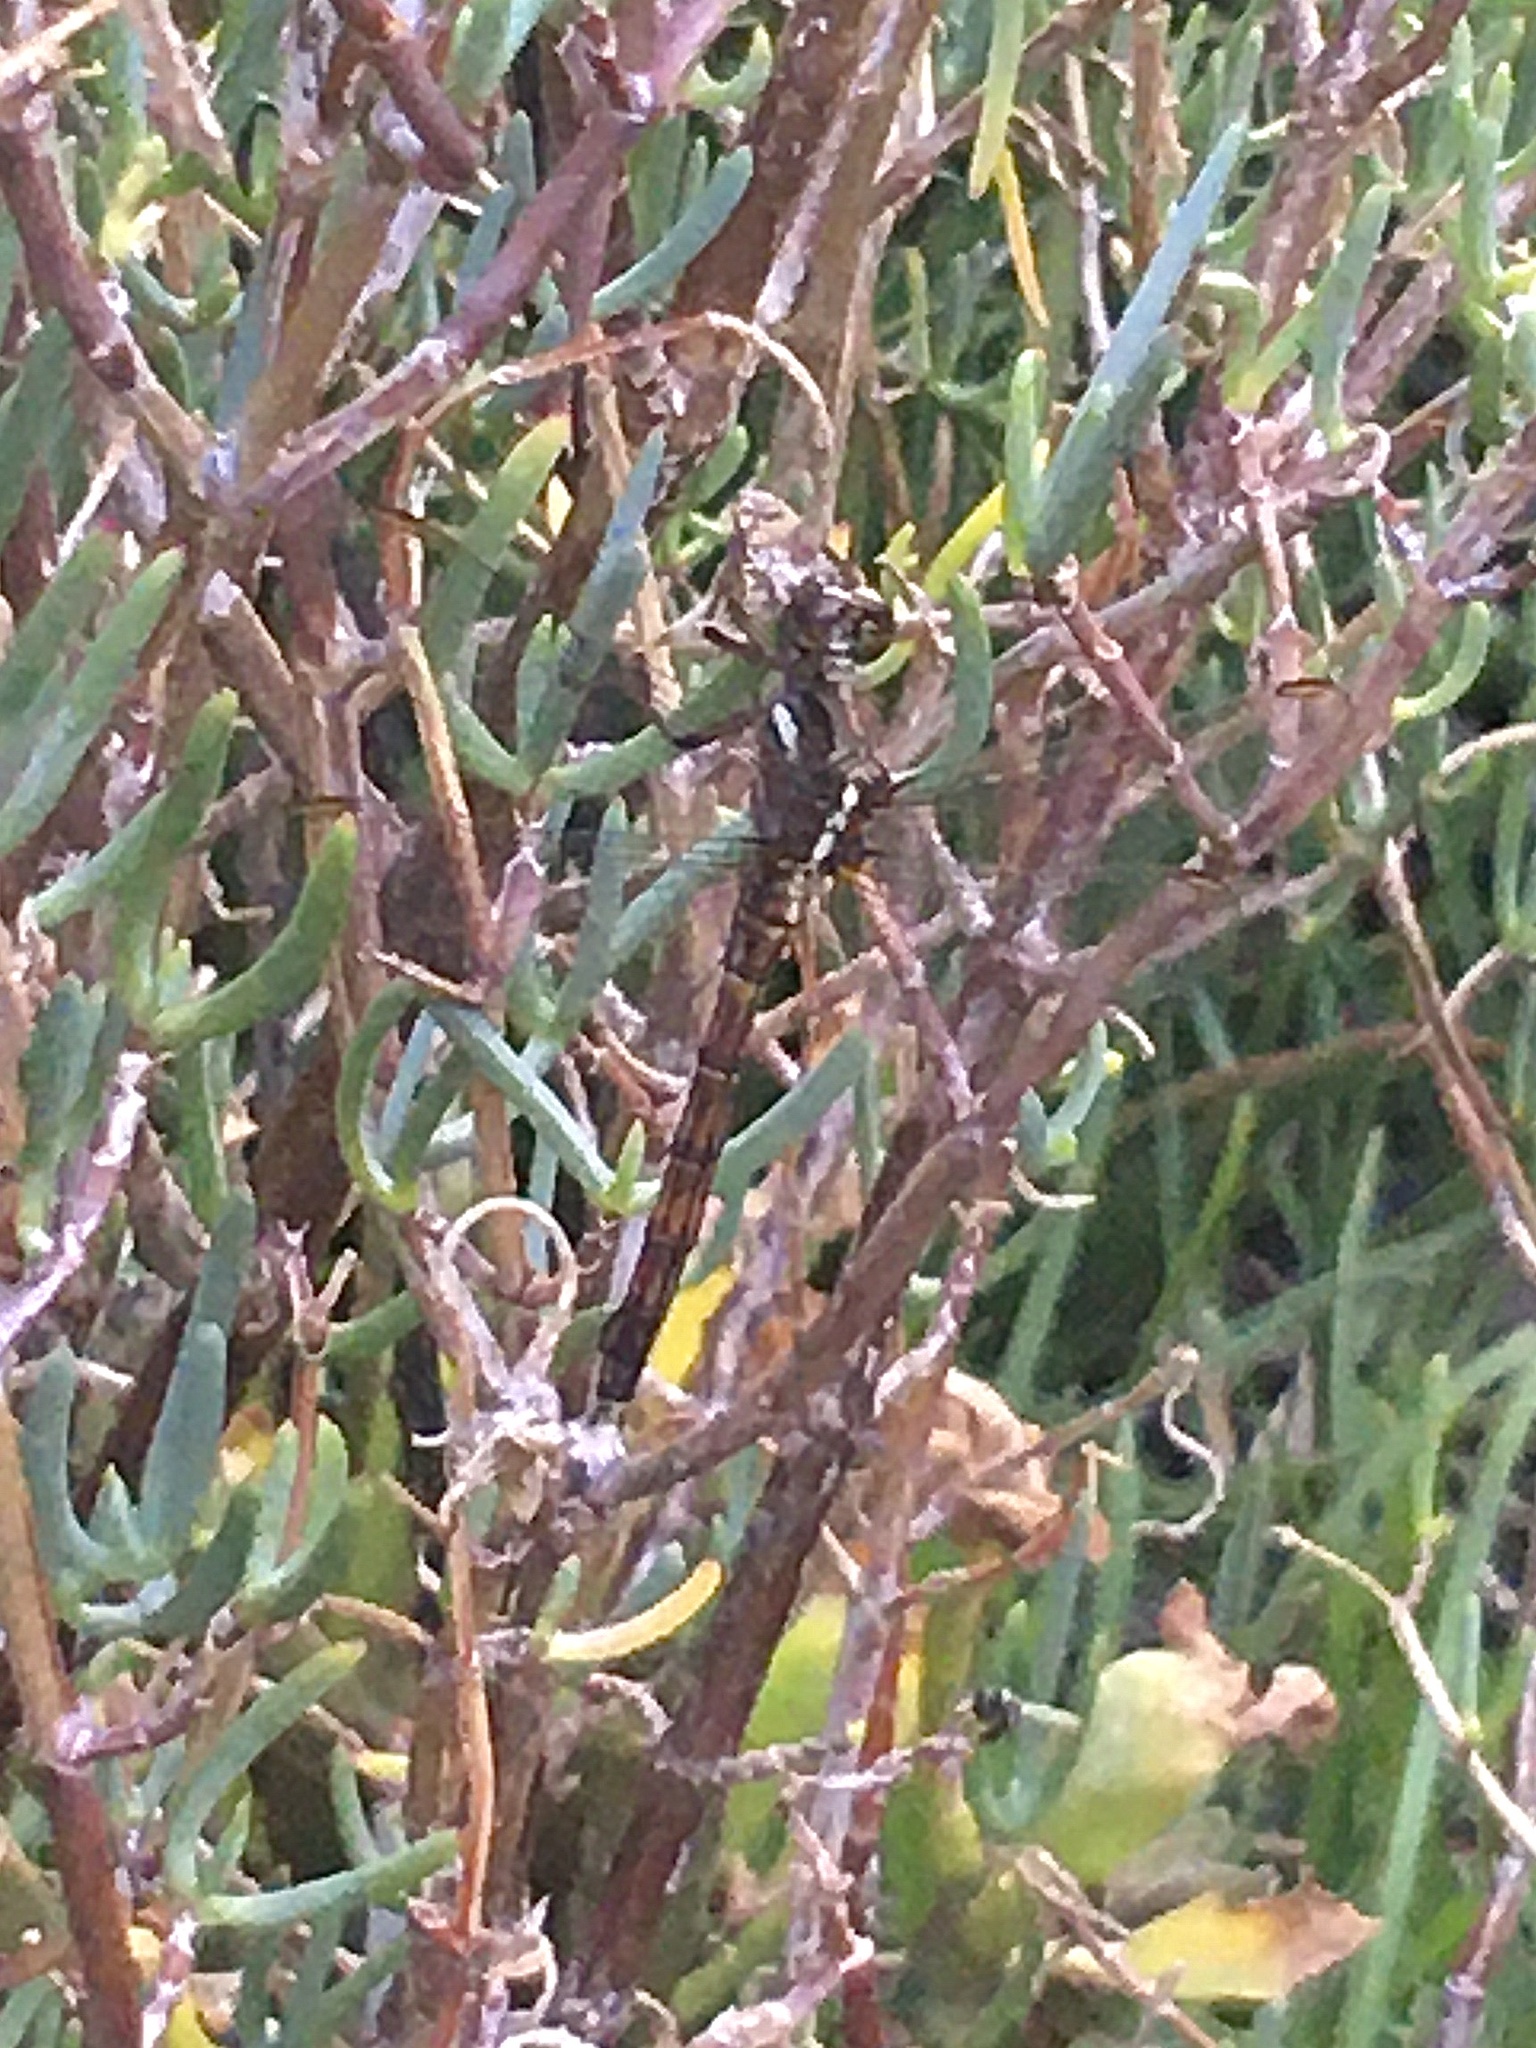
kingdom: Animalia
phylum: Arthropoda
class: Insecta
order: Odonata
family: Libellulidae
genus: Orthetrum
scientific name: Orthetrum julia
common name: Julia skimmer
